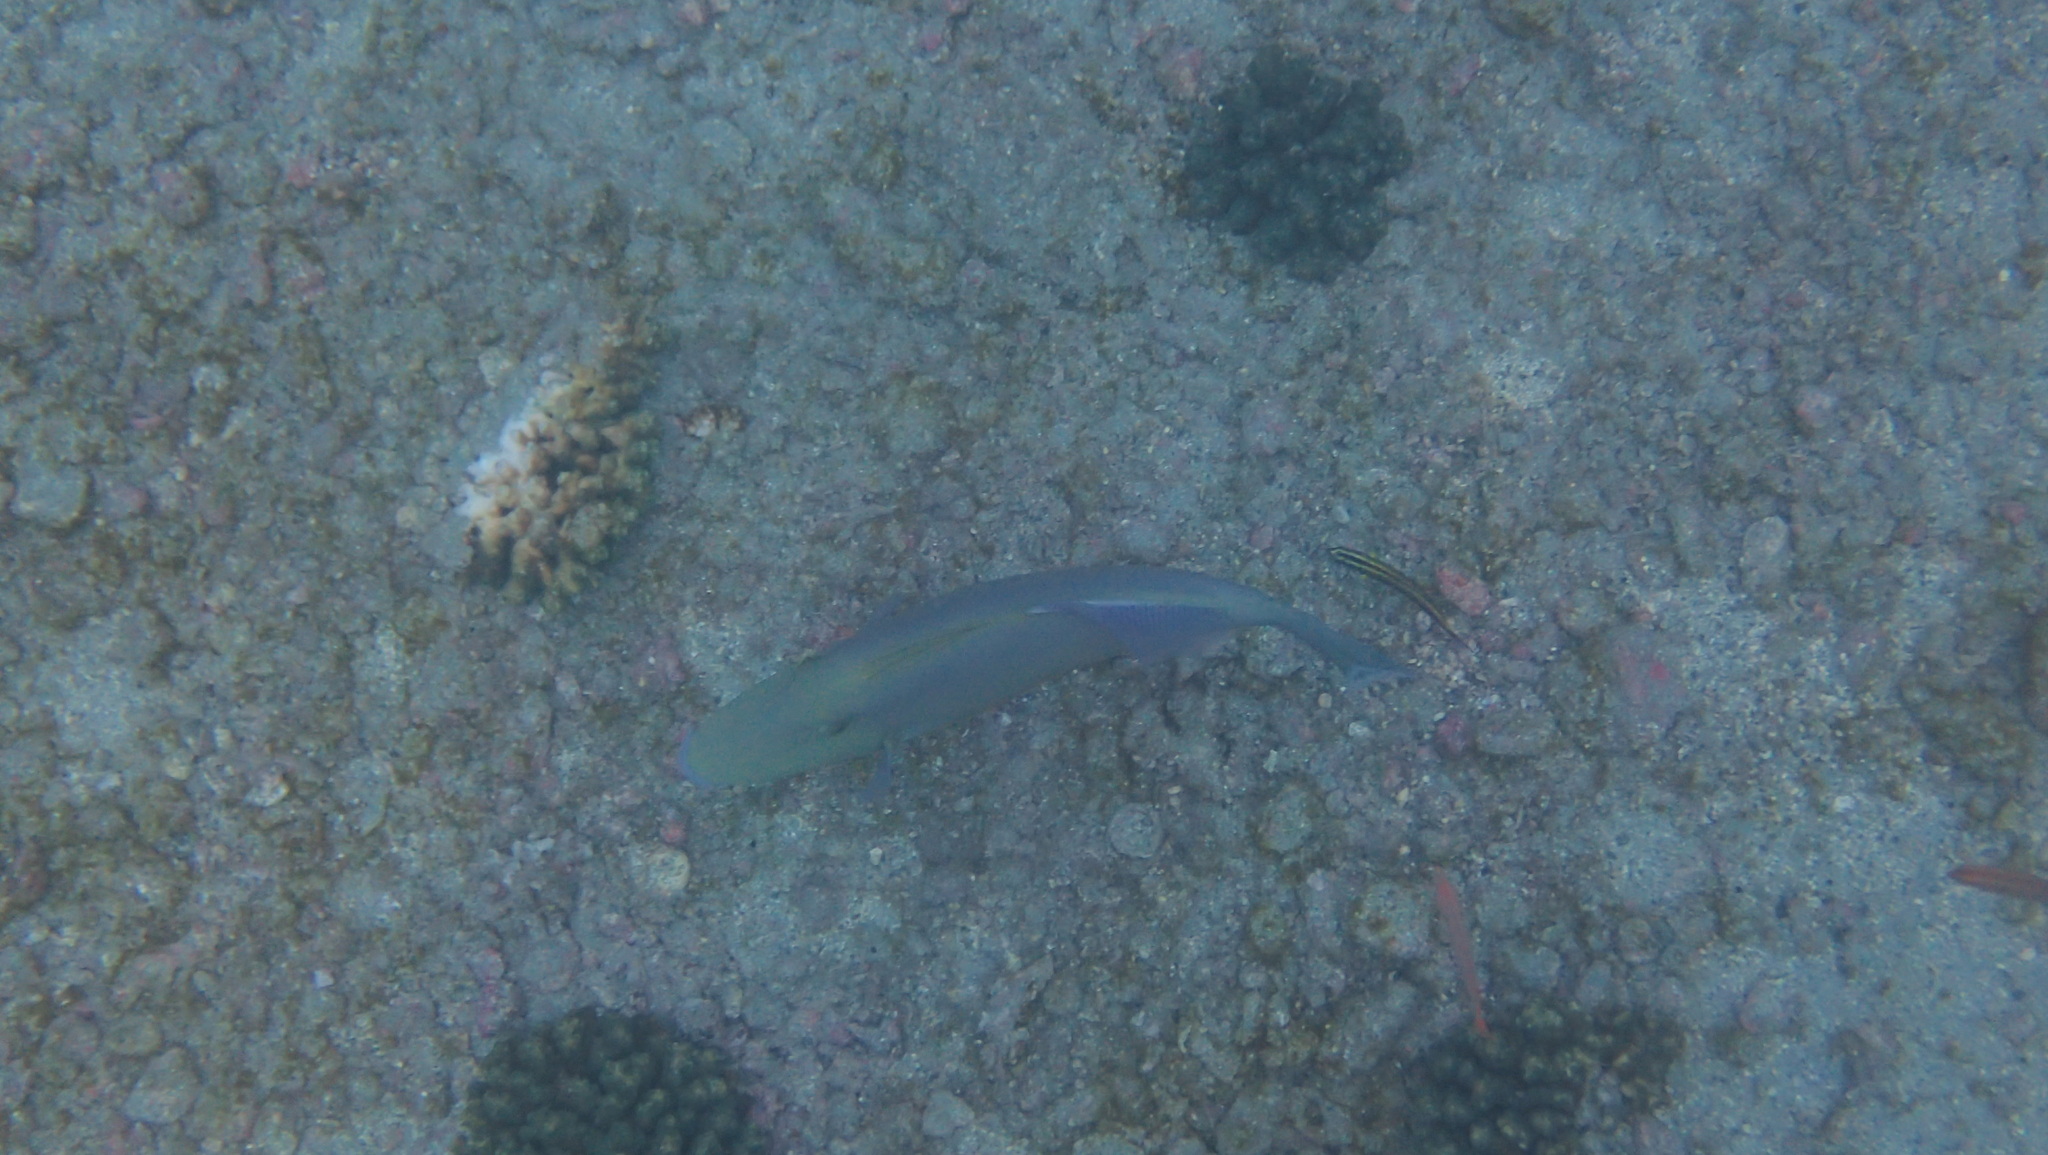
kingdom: Animalia
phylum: Chordata
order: Tetraodontiformes
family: Balistidae
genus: Sufflamen
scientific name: Sufflamen verres
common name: Orangeside triggerfish
